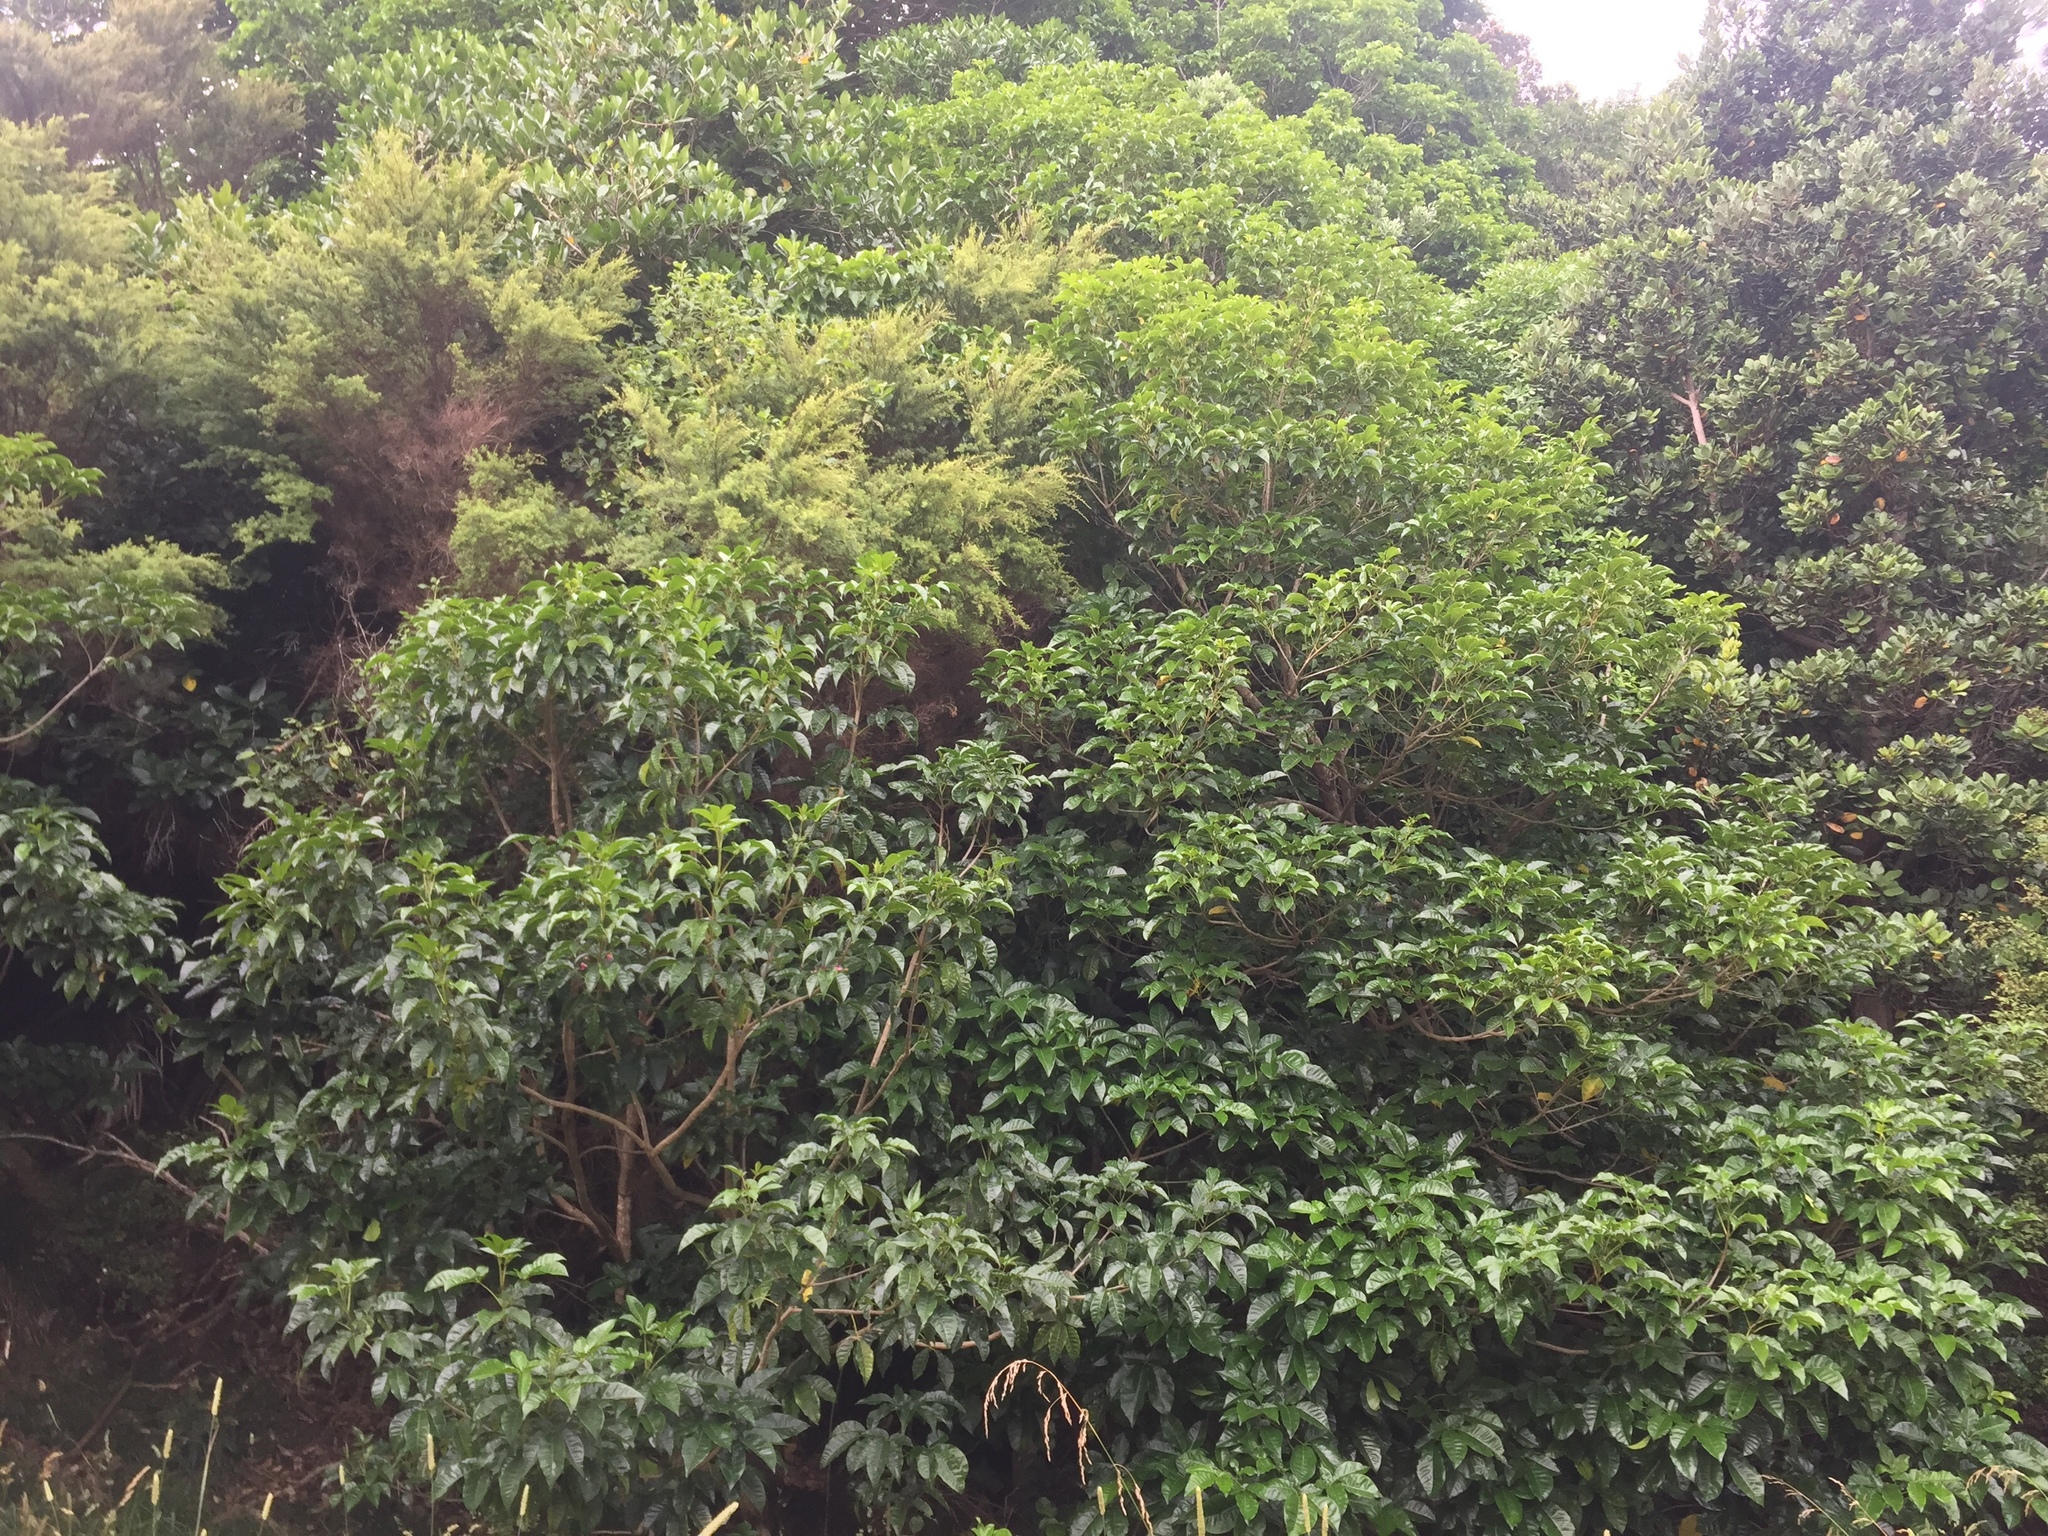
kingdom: Plantae
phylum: Tracheophyta
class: Magnoliopsida
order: Lamiales
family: Lamiaceae
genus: Vitex
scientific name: Vitex lucens
